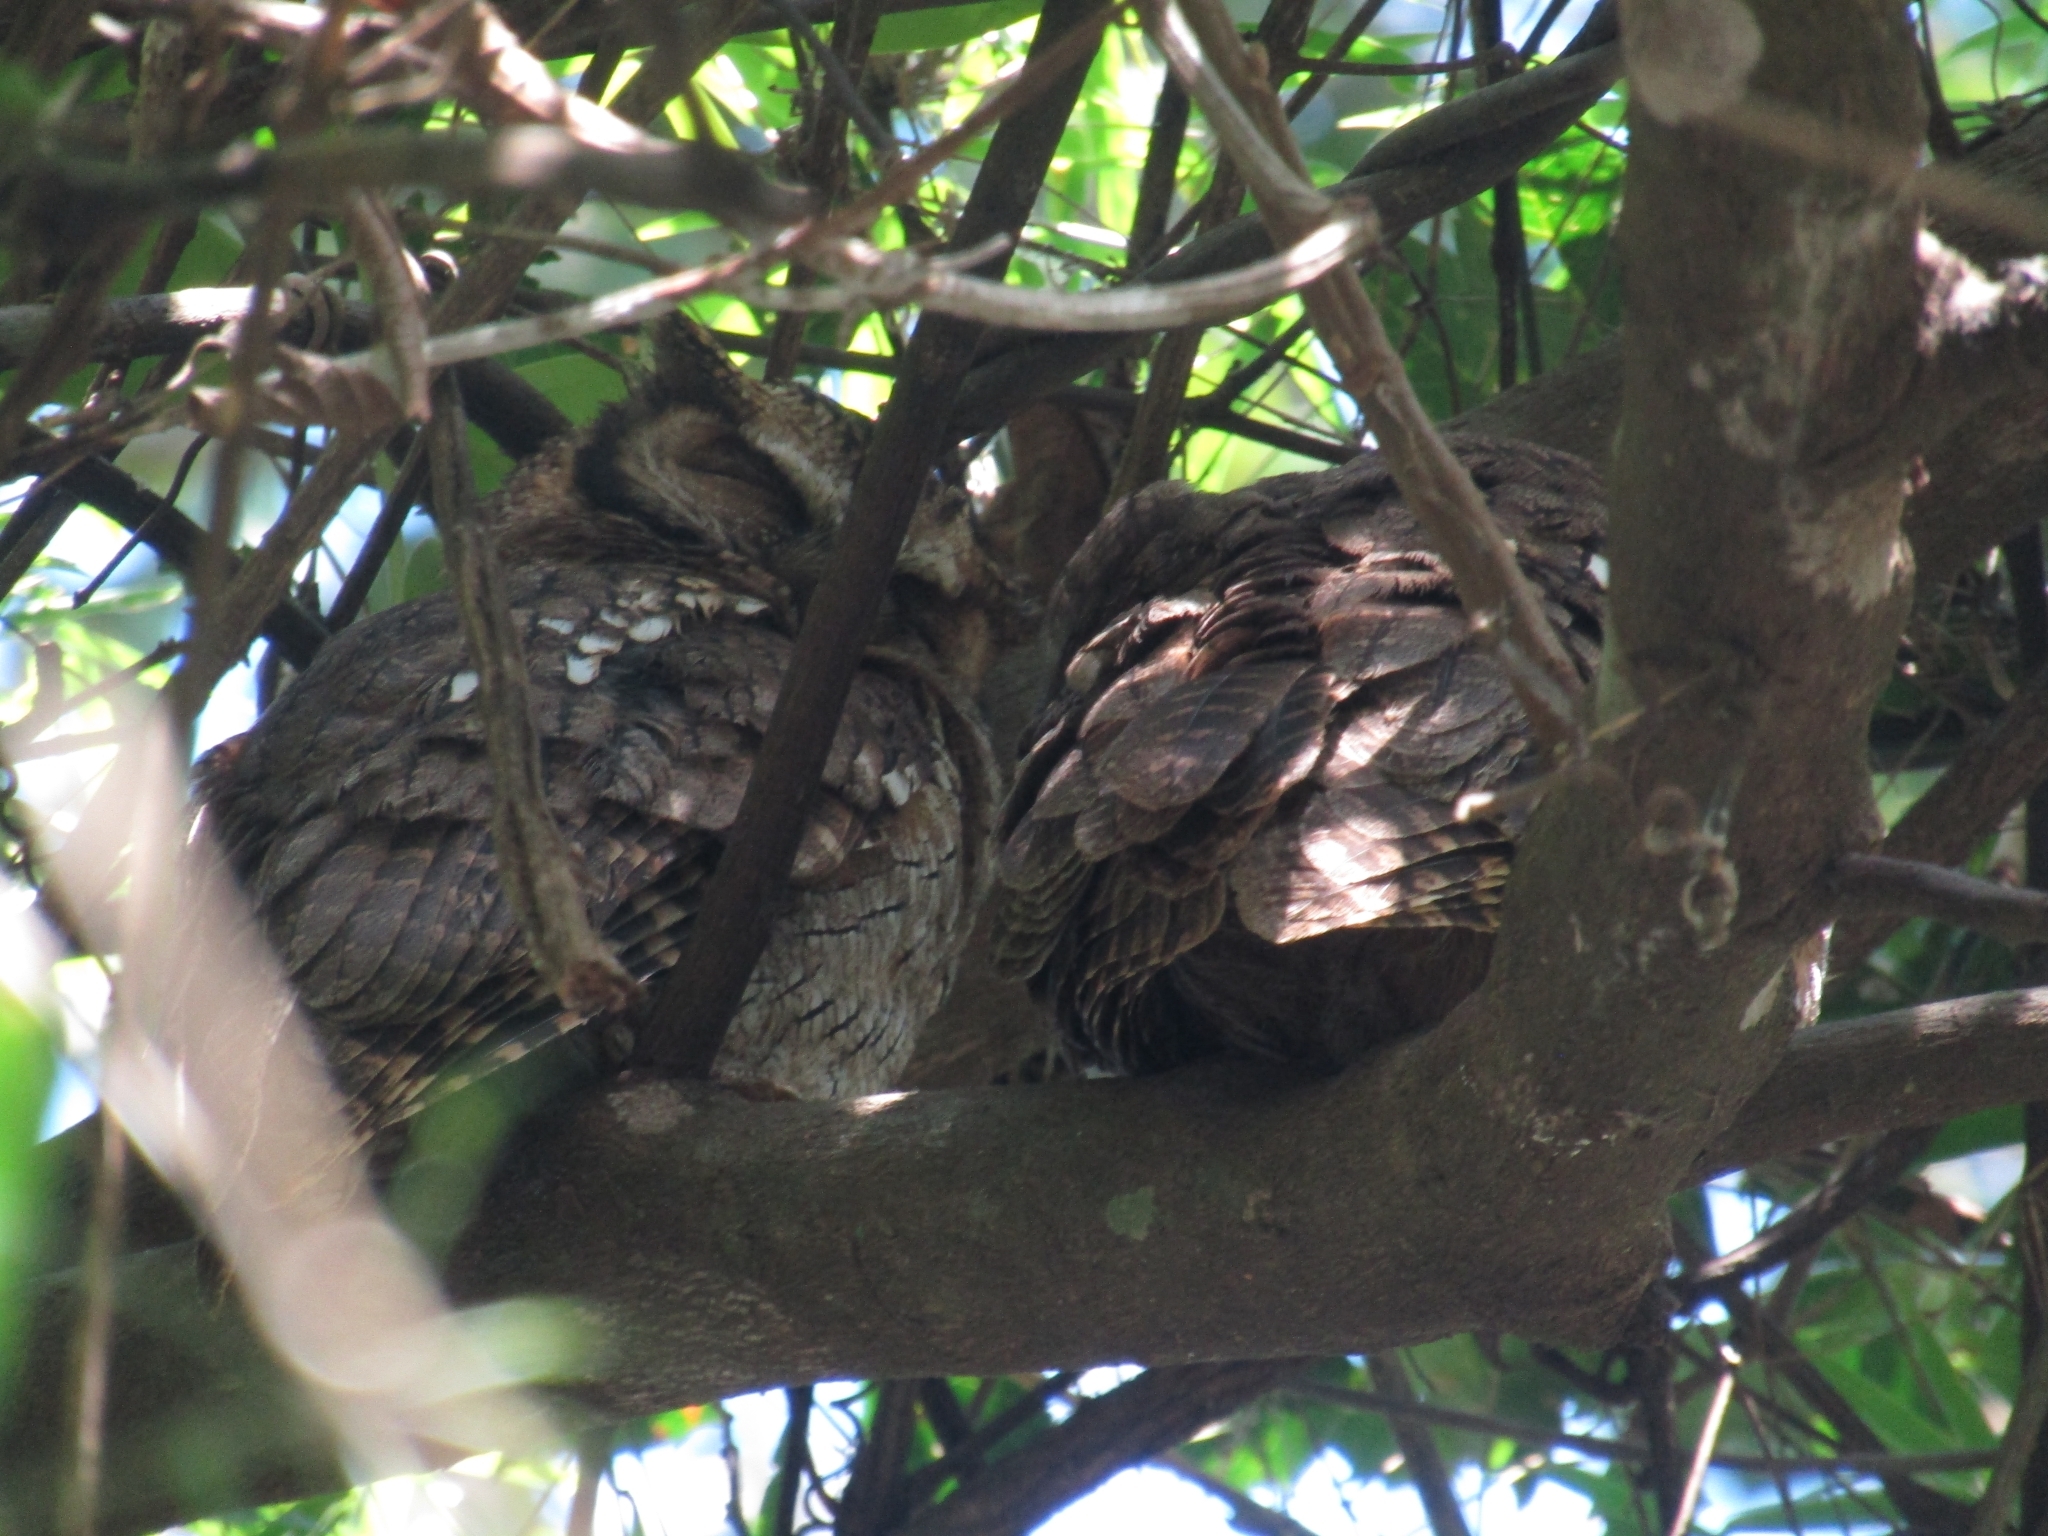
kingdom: Animalia
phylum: Chordata
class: Aves
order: Strigiformes
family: Strigidae
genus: Megascops
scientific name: Megascops choliba
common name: Tropical screech-owl
